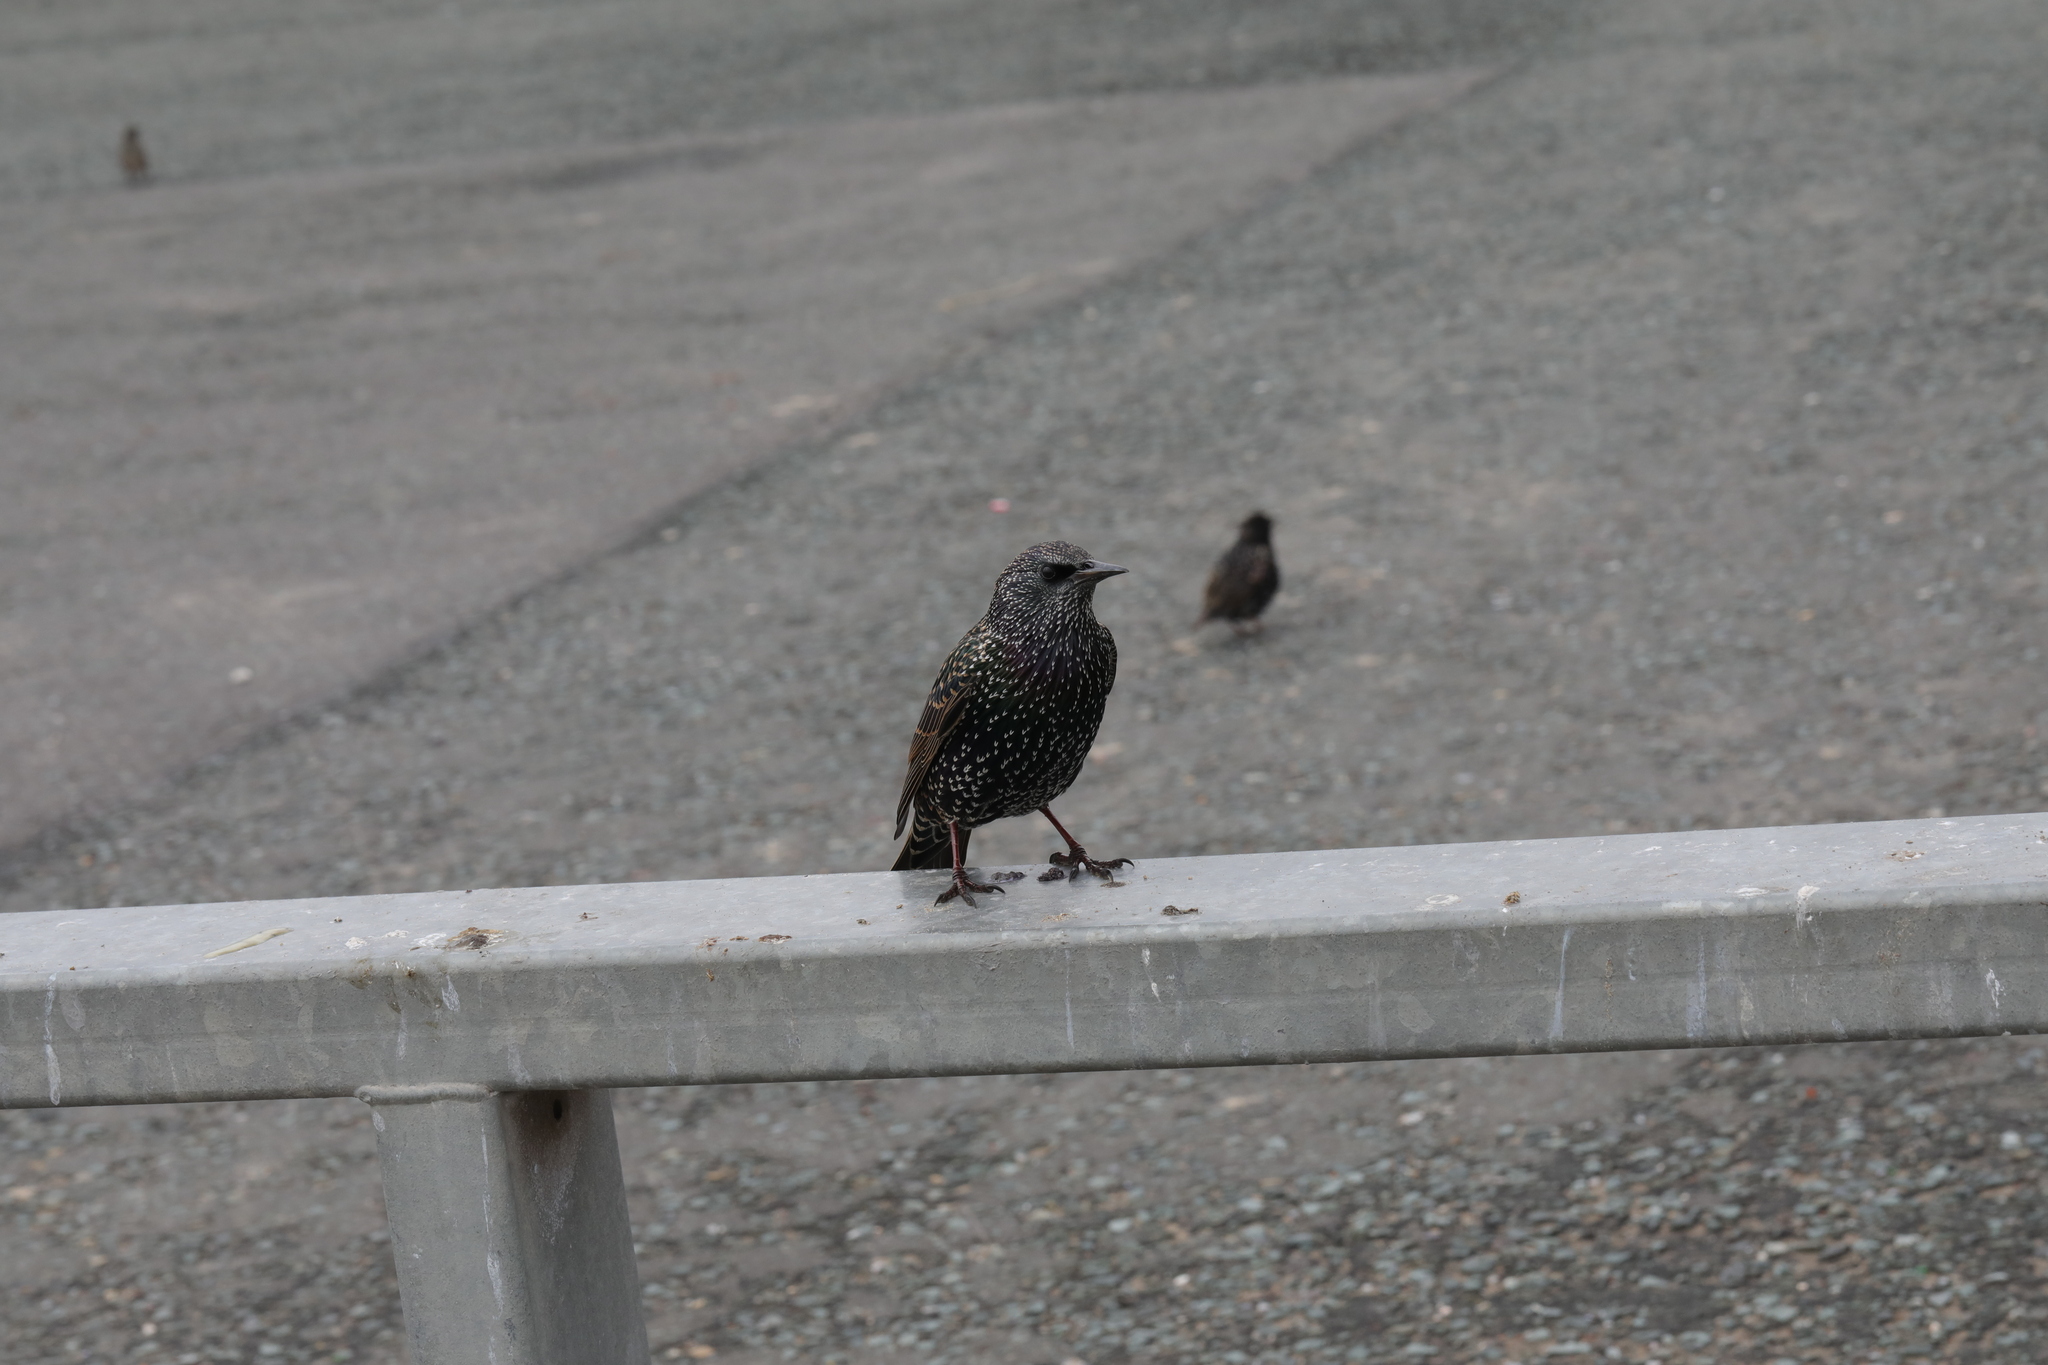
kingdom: Animalia
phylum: Chordata
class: Aves
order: Passeriformes
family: Sturnidae
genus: Sturnus
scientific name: Sturnus vulgaris
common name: Common starling
